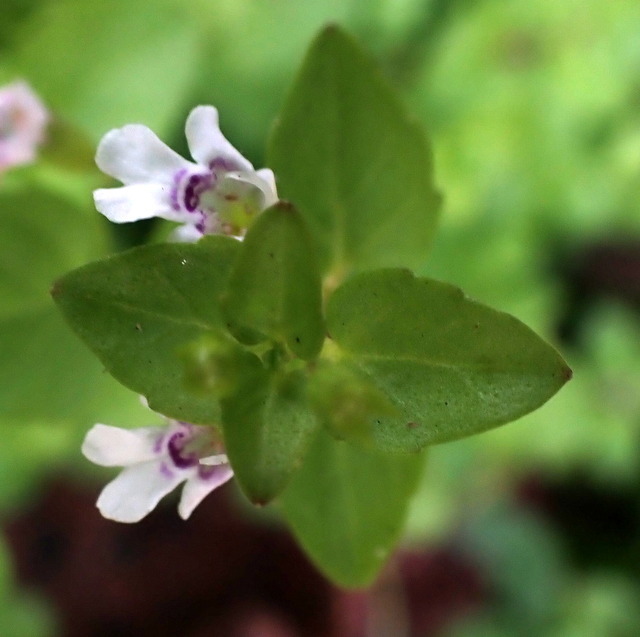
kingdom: Plantae
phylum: Tracheophyta
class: Magnoliopsida
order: Lamiales
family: Lamiaceae
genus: Clinopodium
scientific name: Clinopodium brownei
